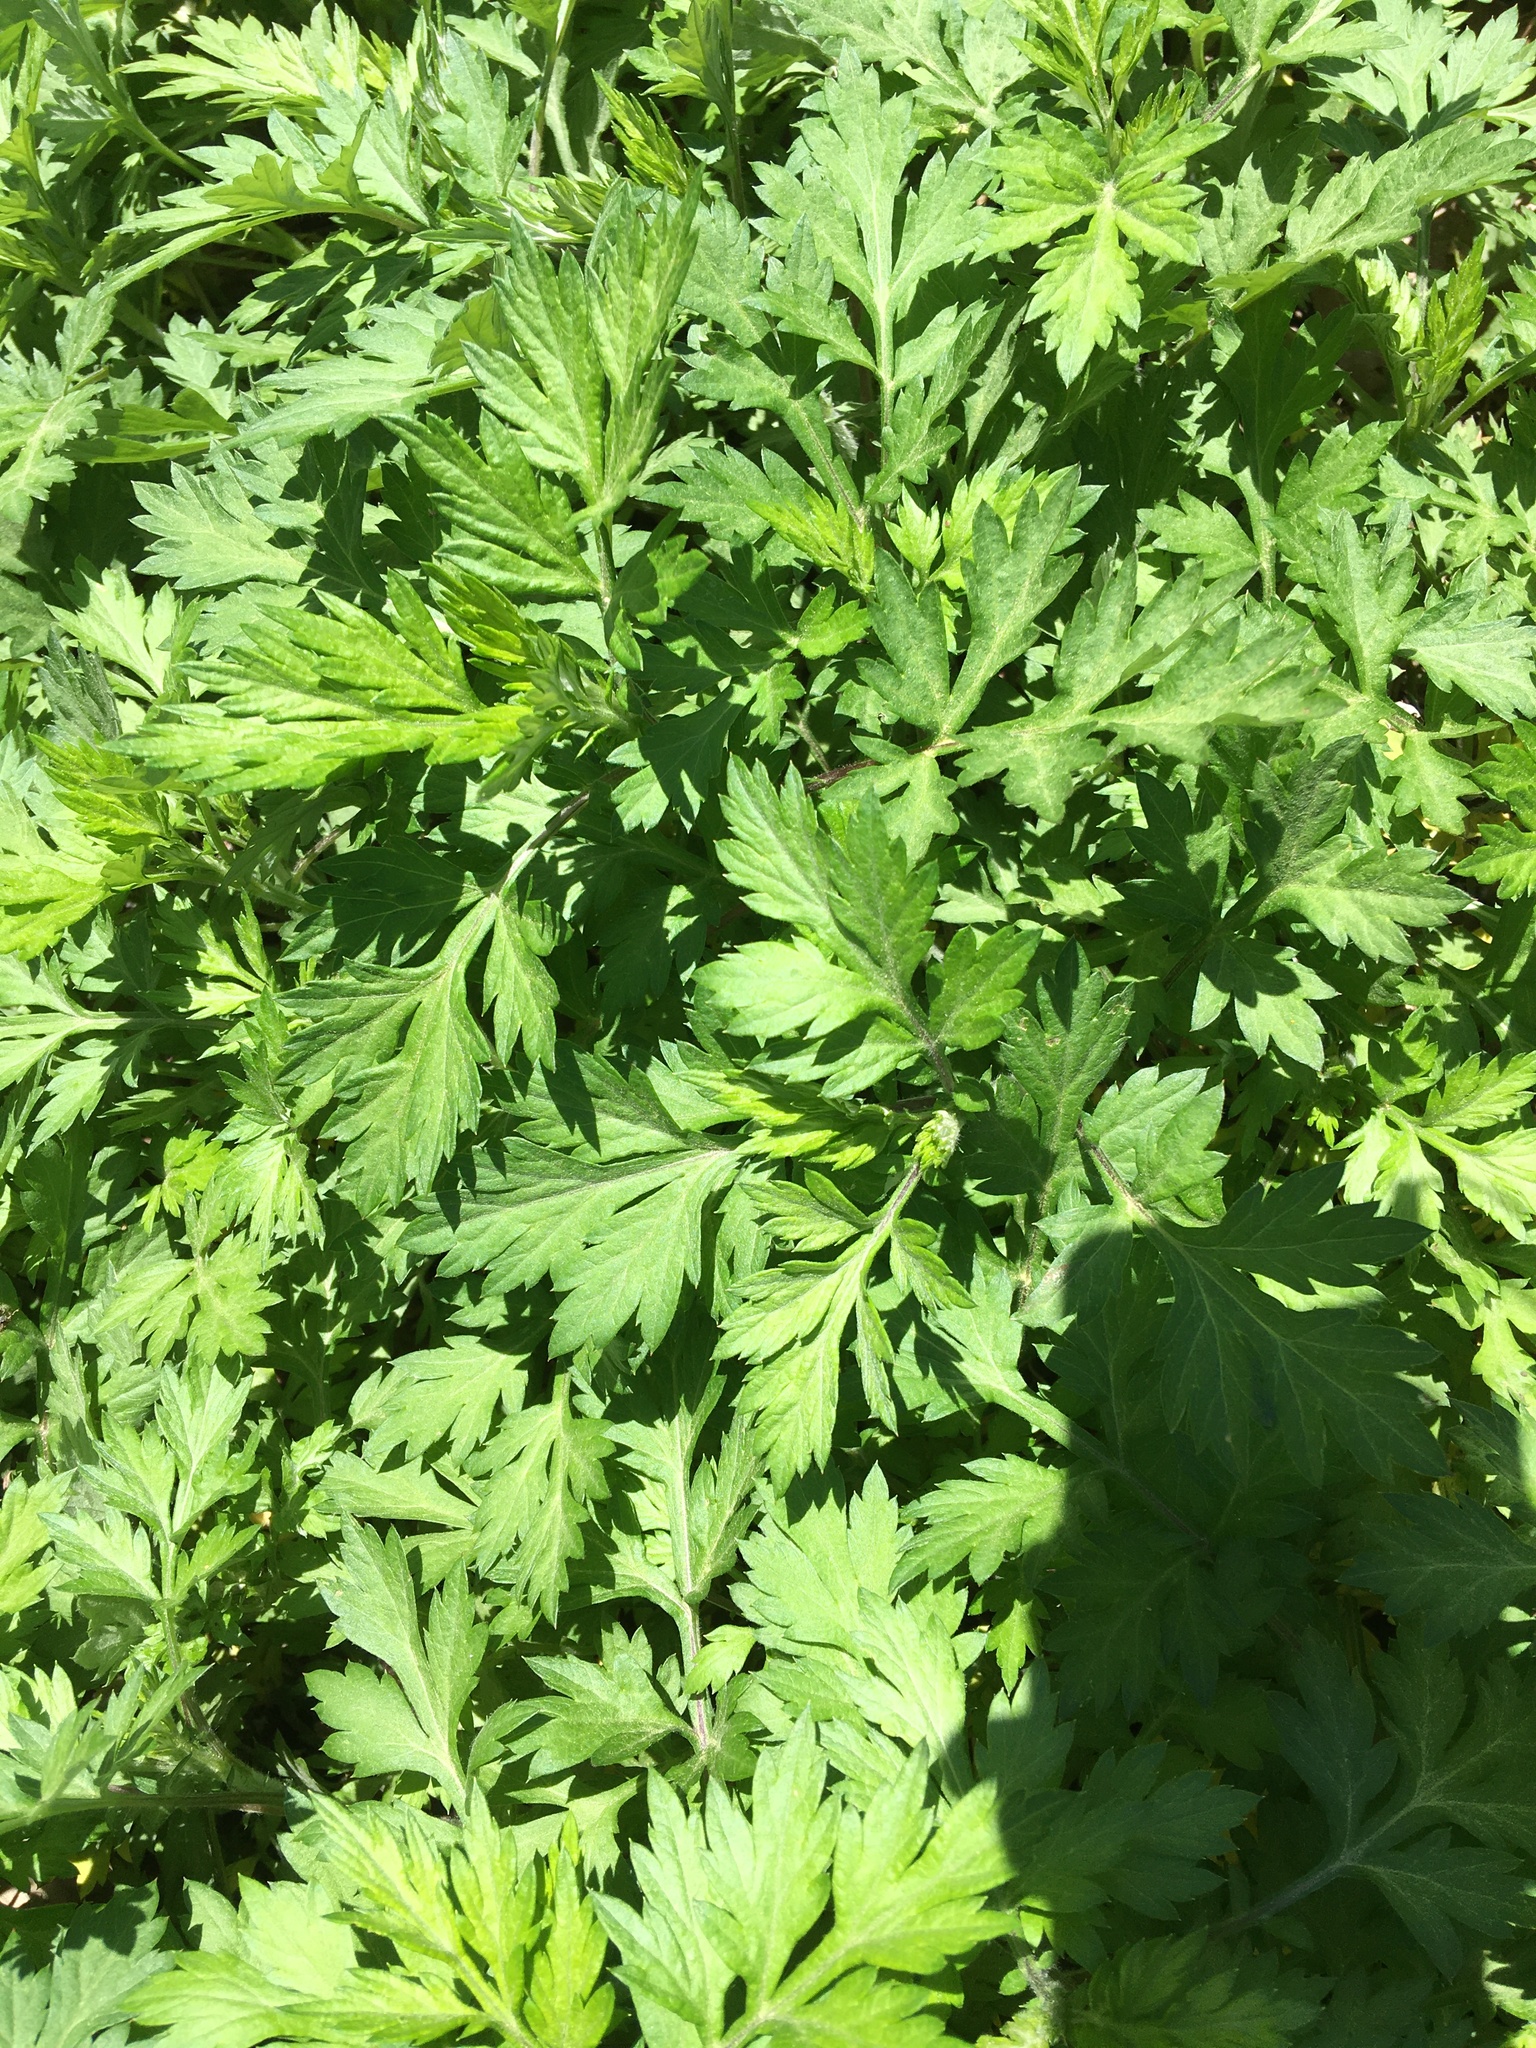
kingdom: Plantae
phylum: Tracheophyta
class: Magnoliopsida
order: Asterales
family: Asteraceae
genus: Artemisia
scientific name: Artemisia vulgaris
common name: Mugwort
